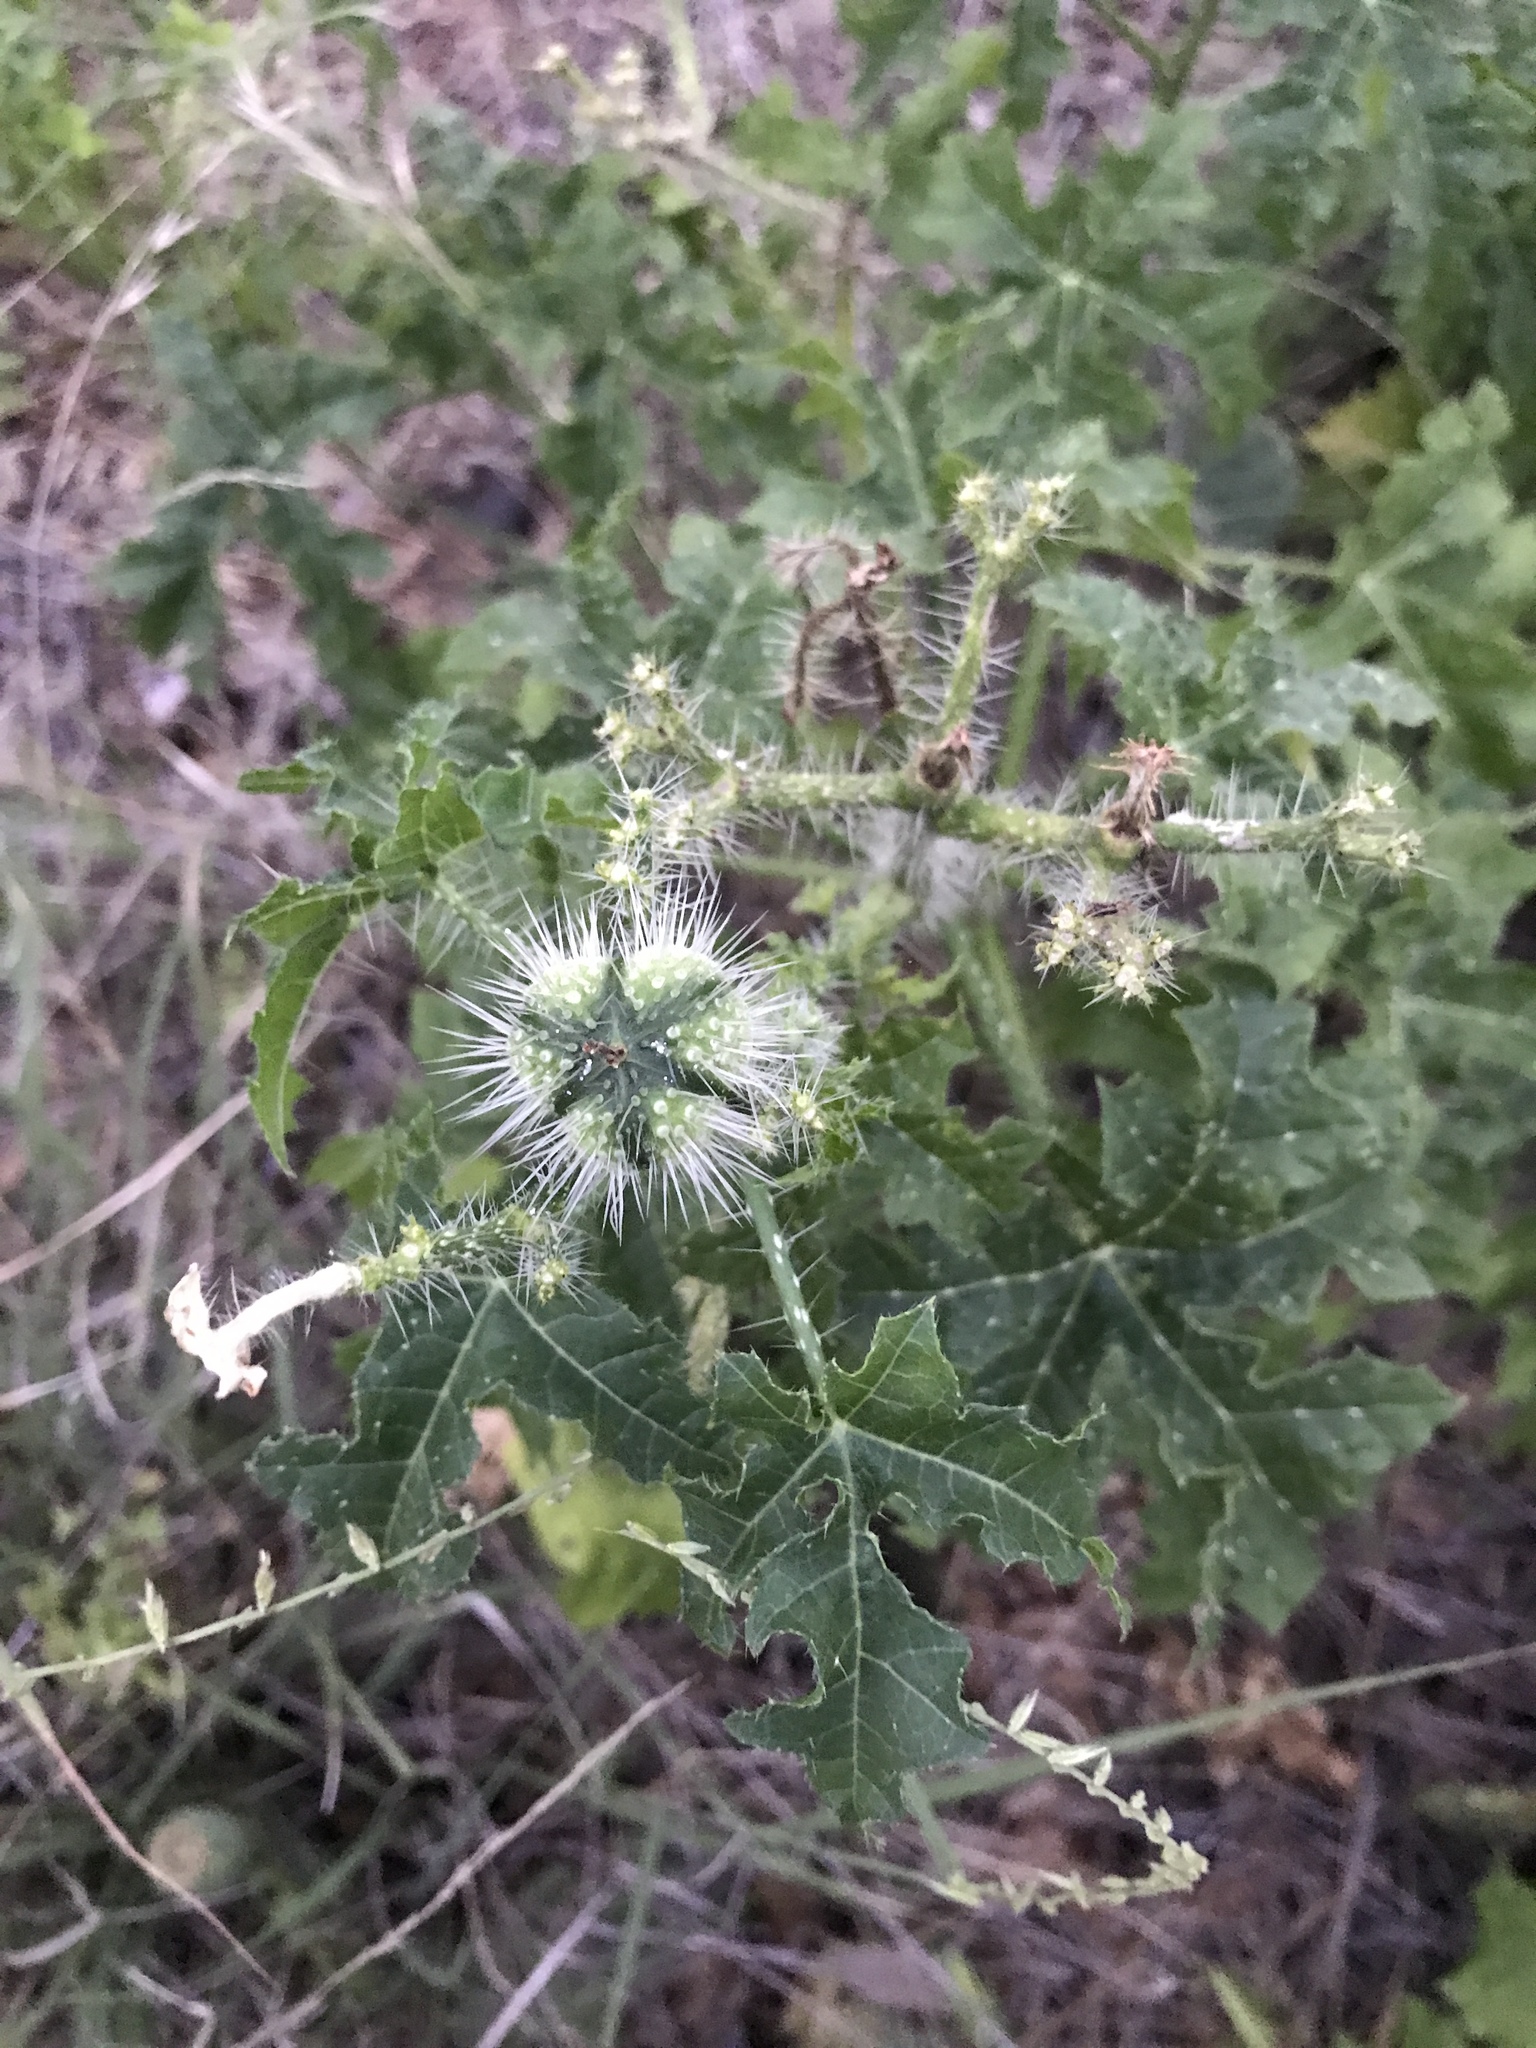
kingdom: Plantae
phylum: Tracheophyta
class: Magnoliopsida
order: Malpighiales
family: Euphorbiaceae
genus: Cnidoscolus
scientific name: Cnidoscolus texanus
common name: Texas bull-nettle
